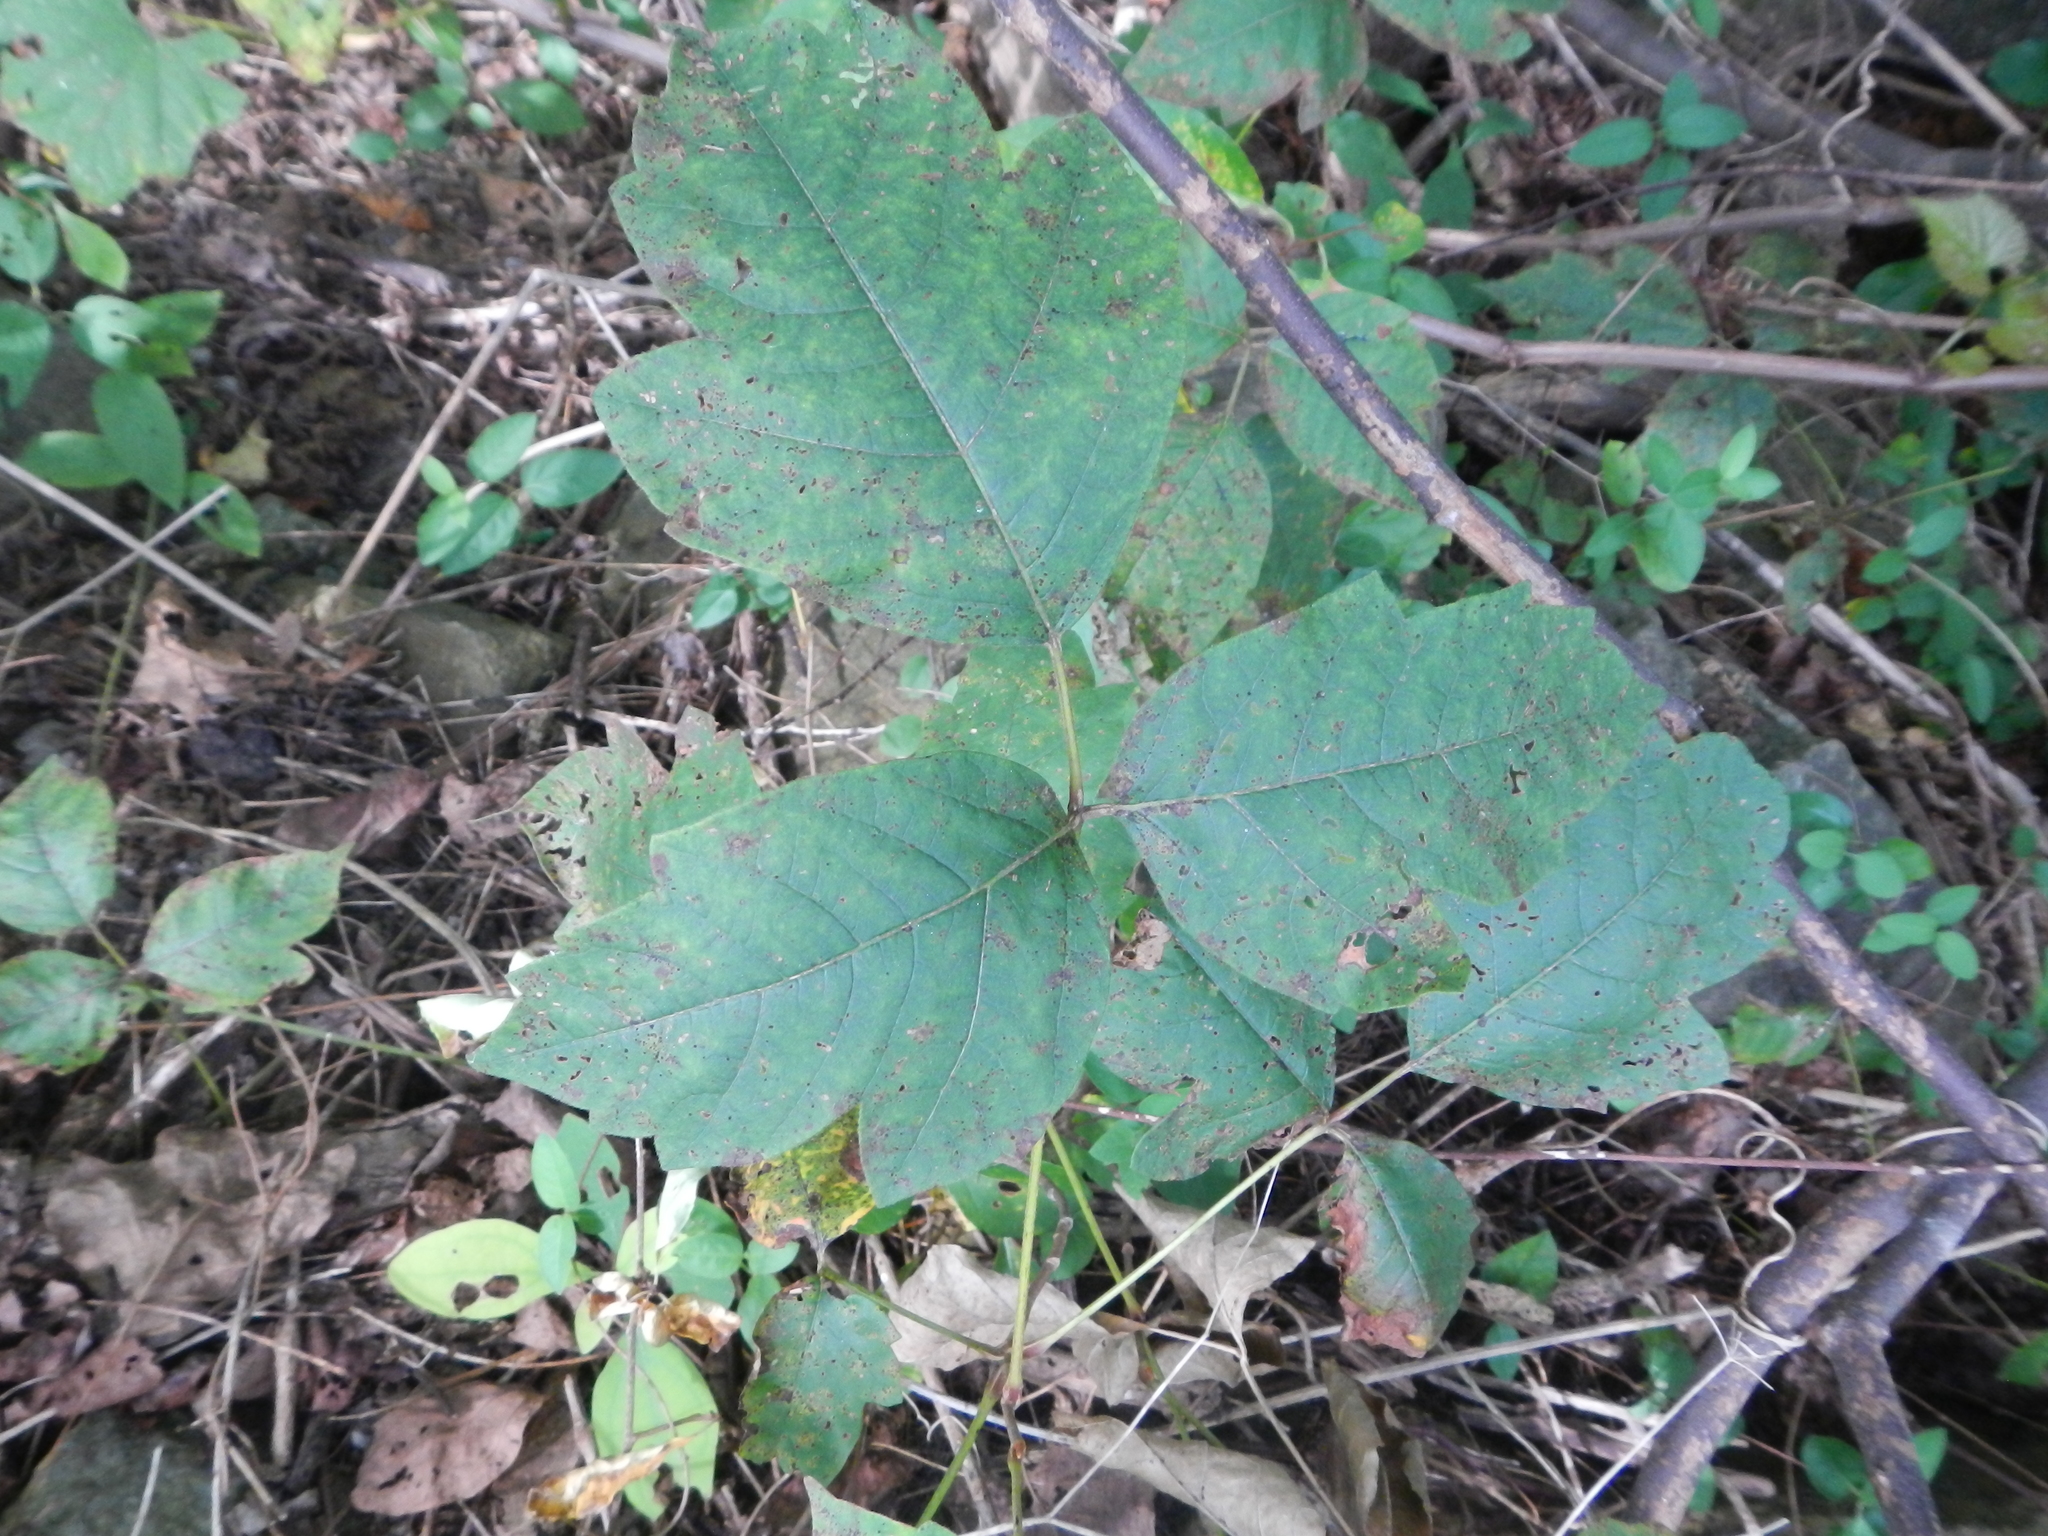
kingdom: Plantae
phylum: Tracheophyta
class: Magnoliopsida
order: Sapindales
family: Anacardiaceae
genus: Toxicodendron
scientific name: Toxicodendron radicans
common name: Poison ivy
